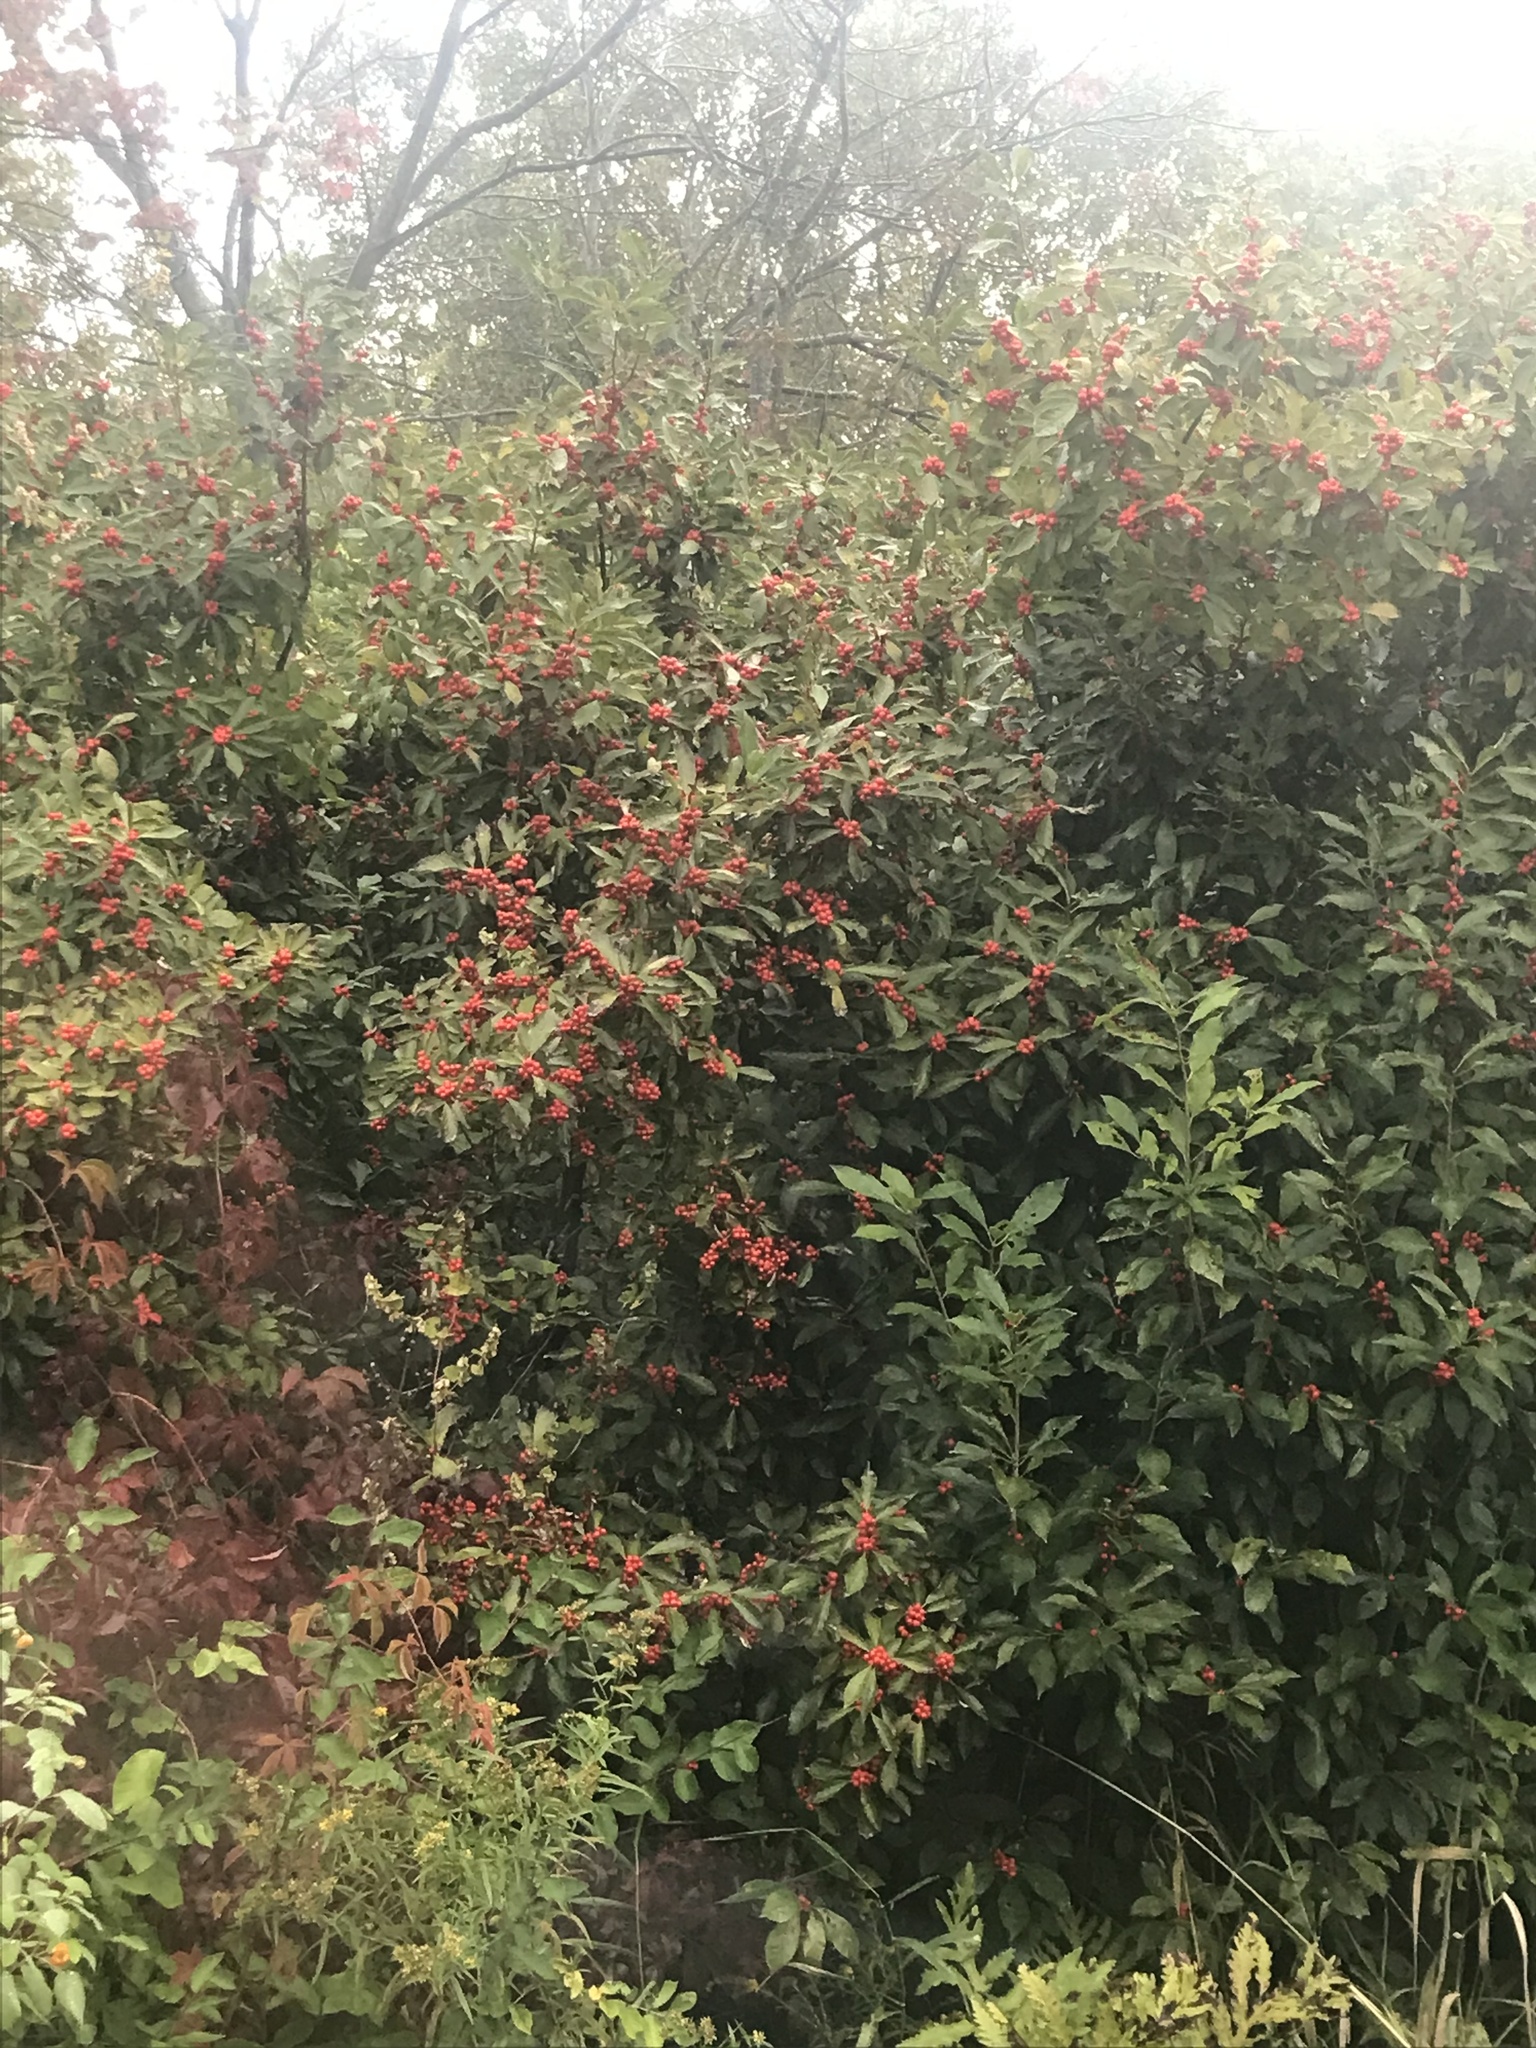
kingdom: Plantae
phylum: Tracheophyta
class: Magnoliopsida
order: Aquifoliales
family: Aquifoliaceae
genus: Ilex
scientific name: Ilex verticillata
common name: Virginia winterberry
